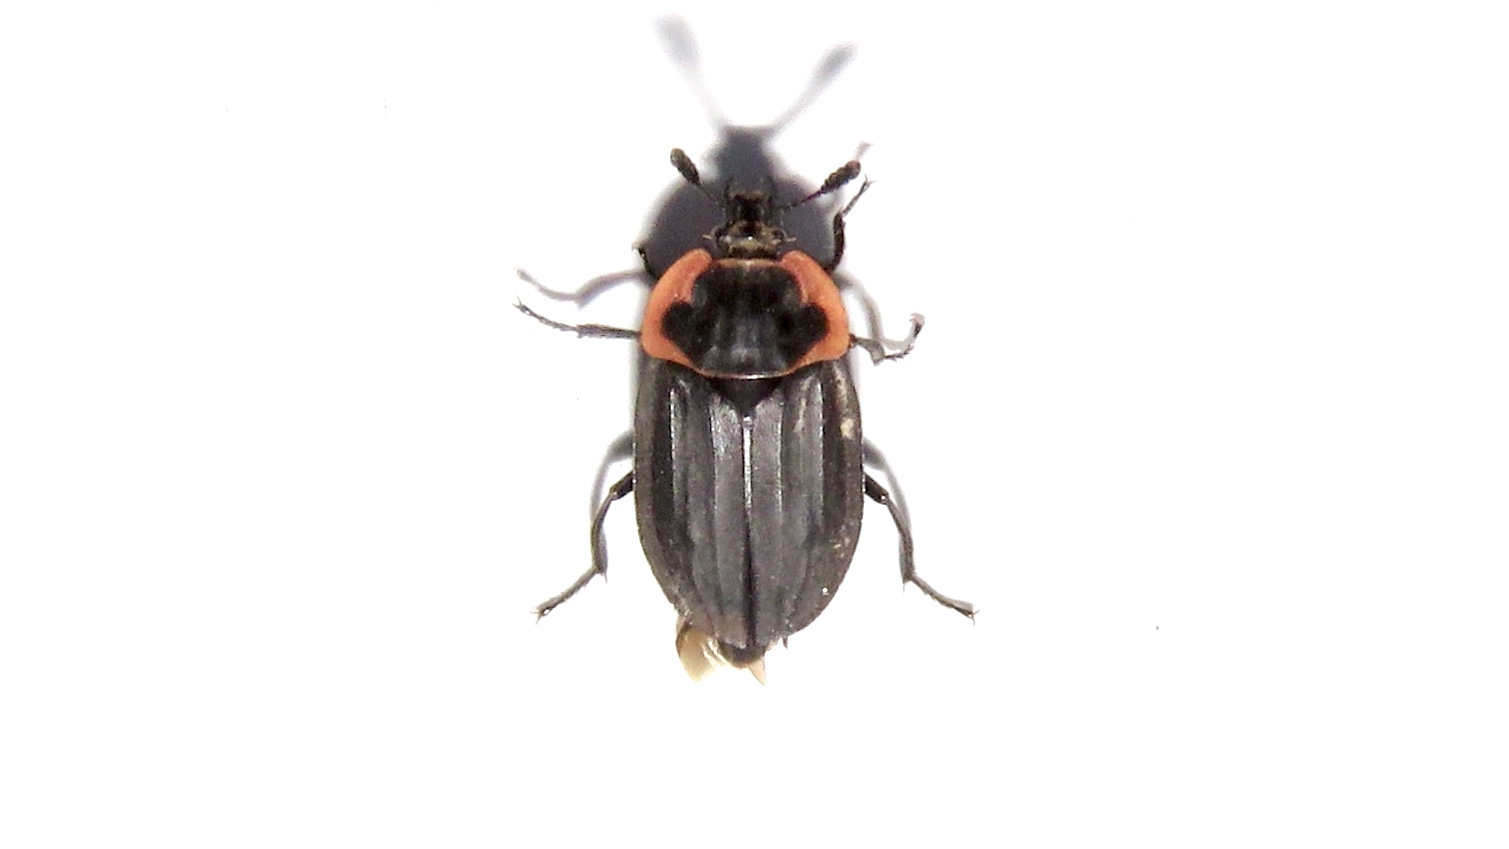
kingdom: Animalia
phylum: Arthropoda
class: Insecta
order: Coleoptera
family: Staphylinidae
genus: Oiceoptoma
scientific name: Oiceoptoma noveboracense
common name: Margined carrion beetle
